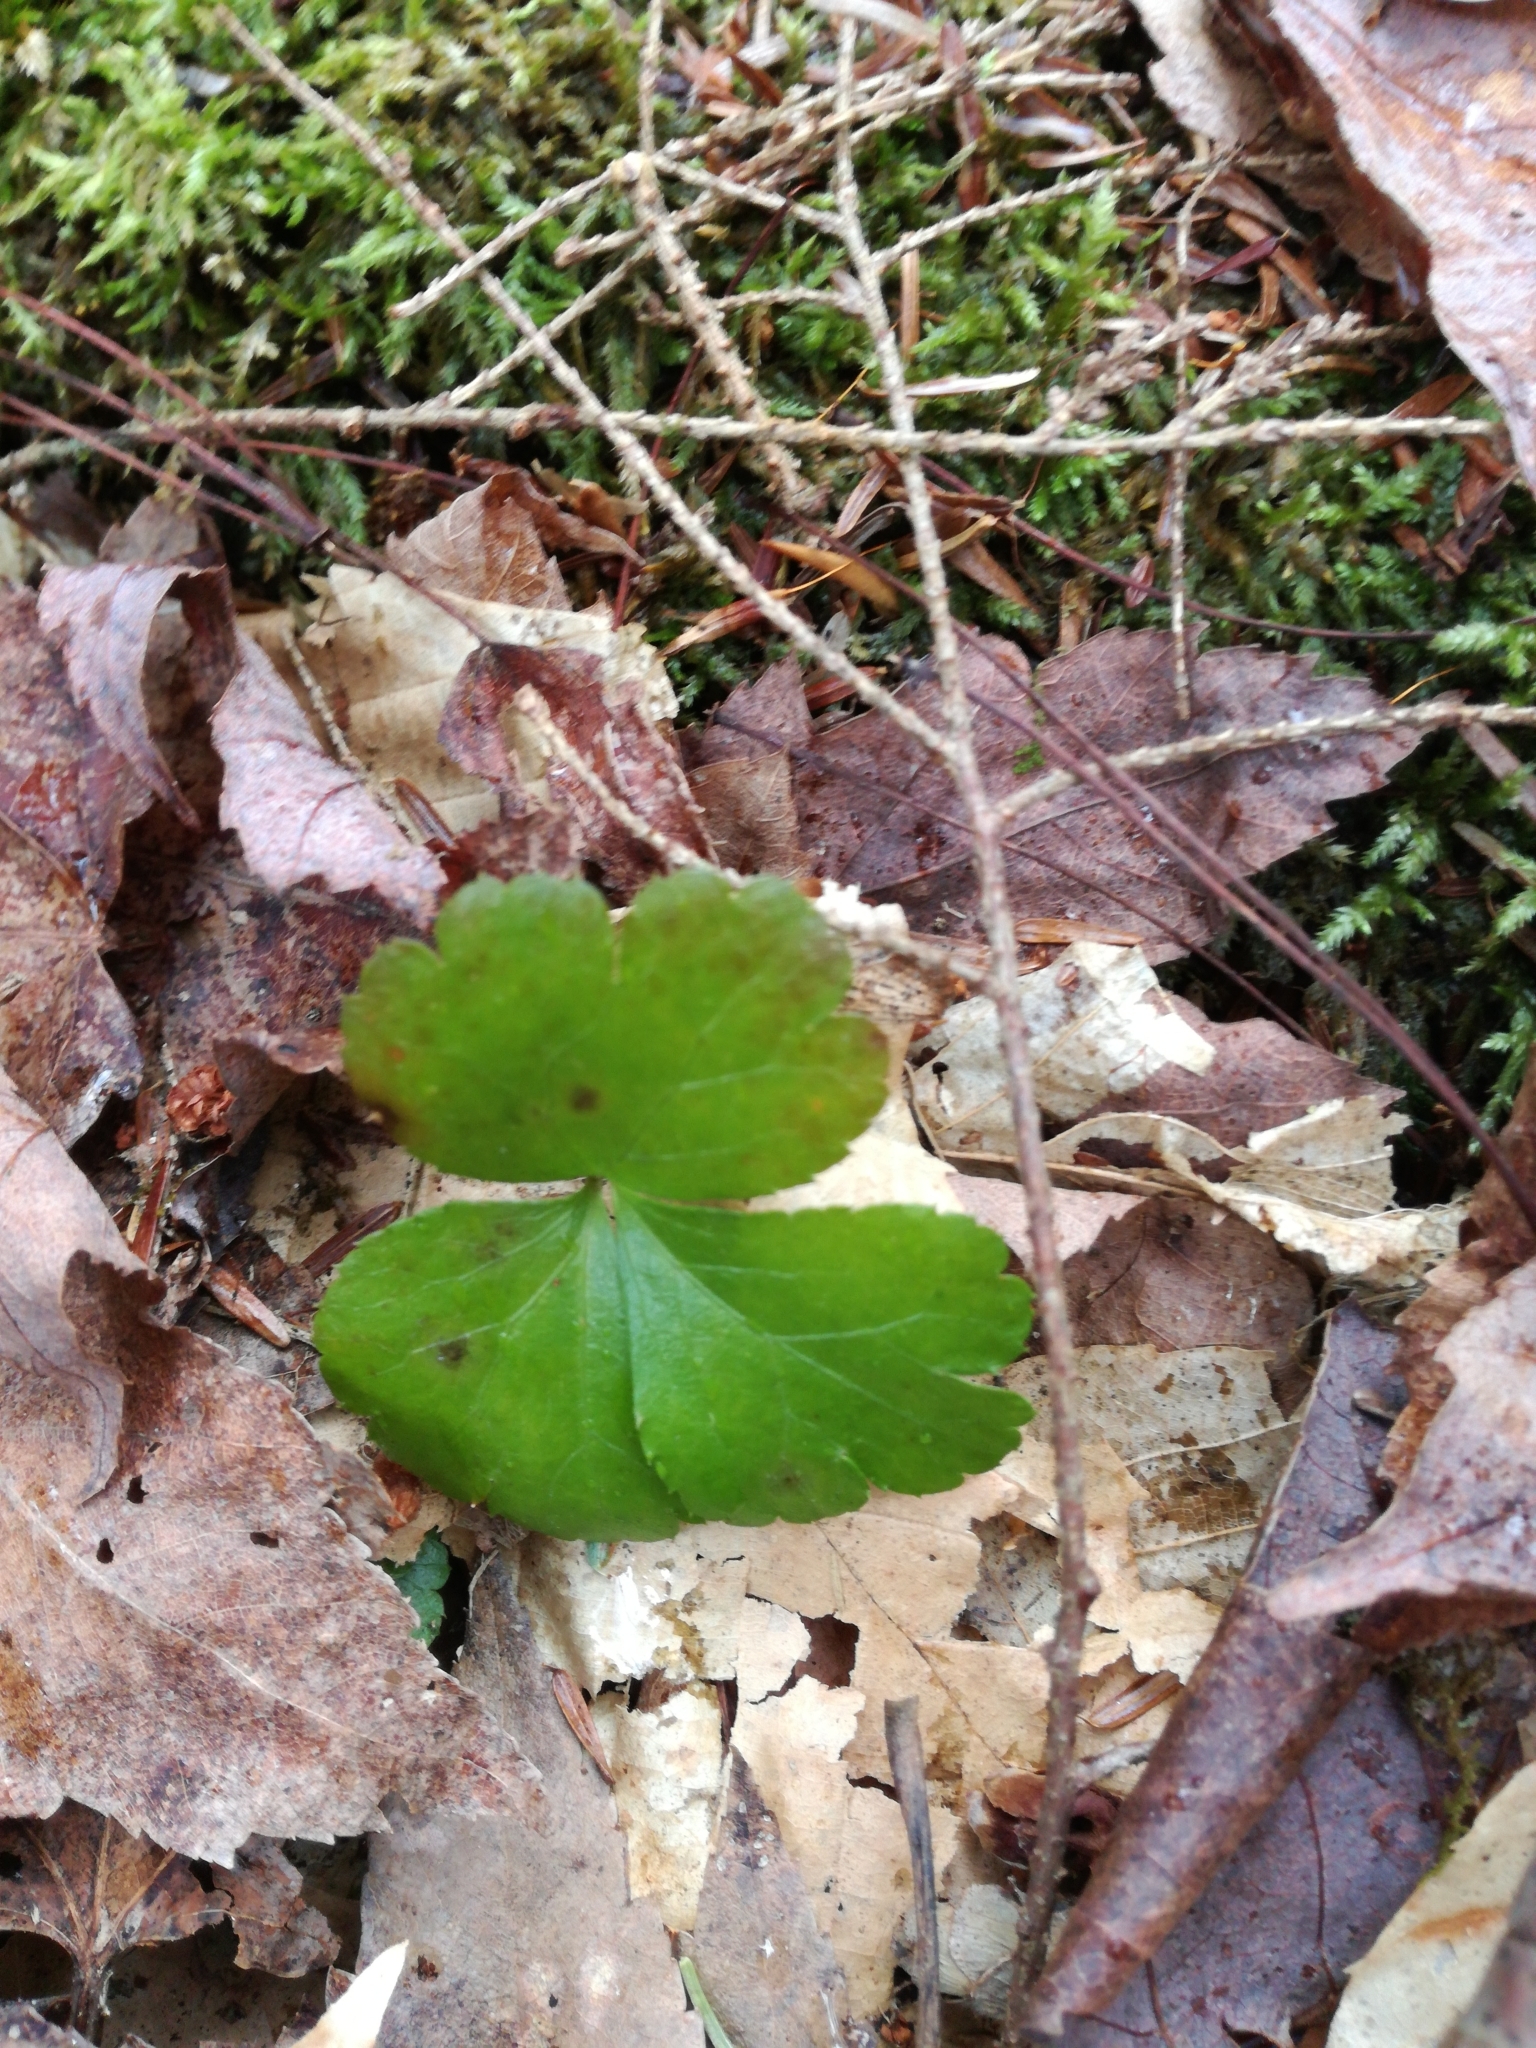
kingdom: Plantae
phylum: Tracheophyta
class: Magnoliopsida
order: Ranunculales
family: Ranunculaceae
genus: Coptis
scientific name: Coptis trifolia
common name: Canker-root
